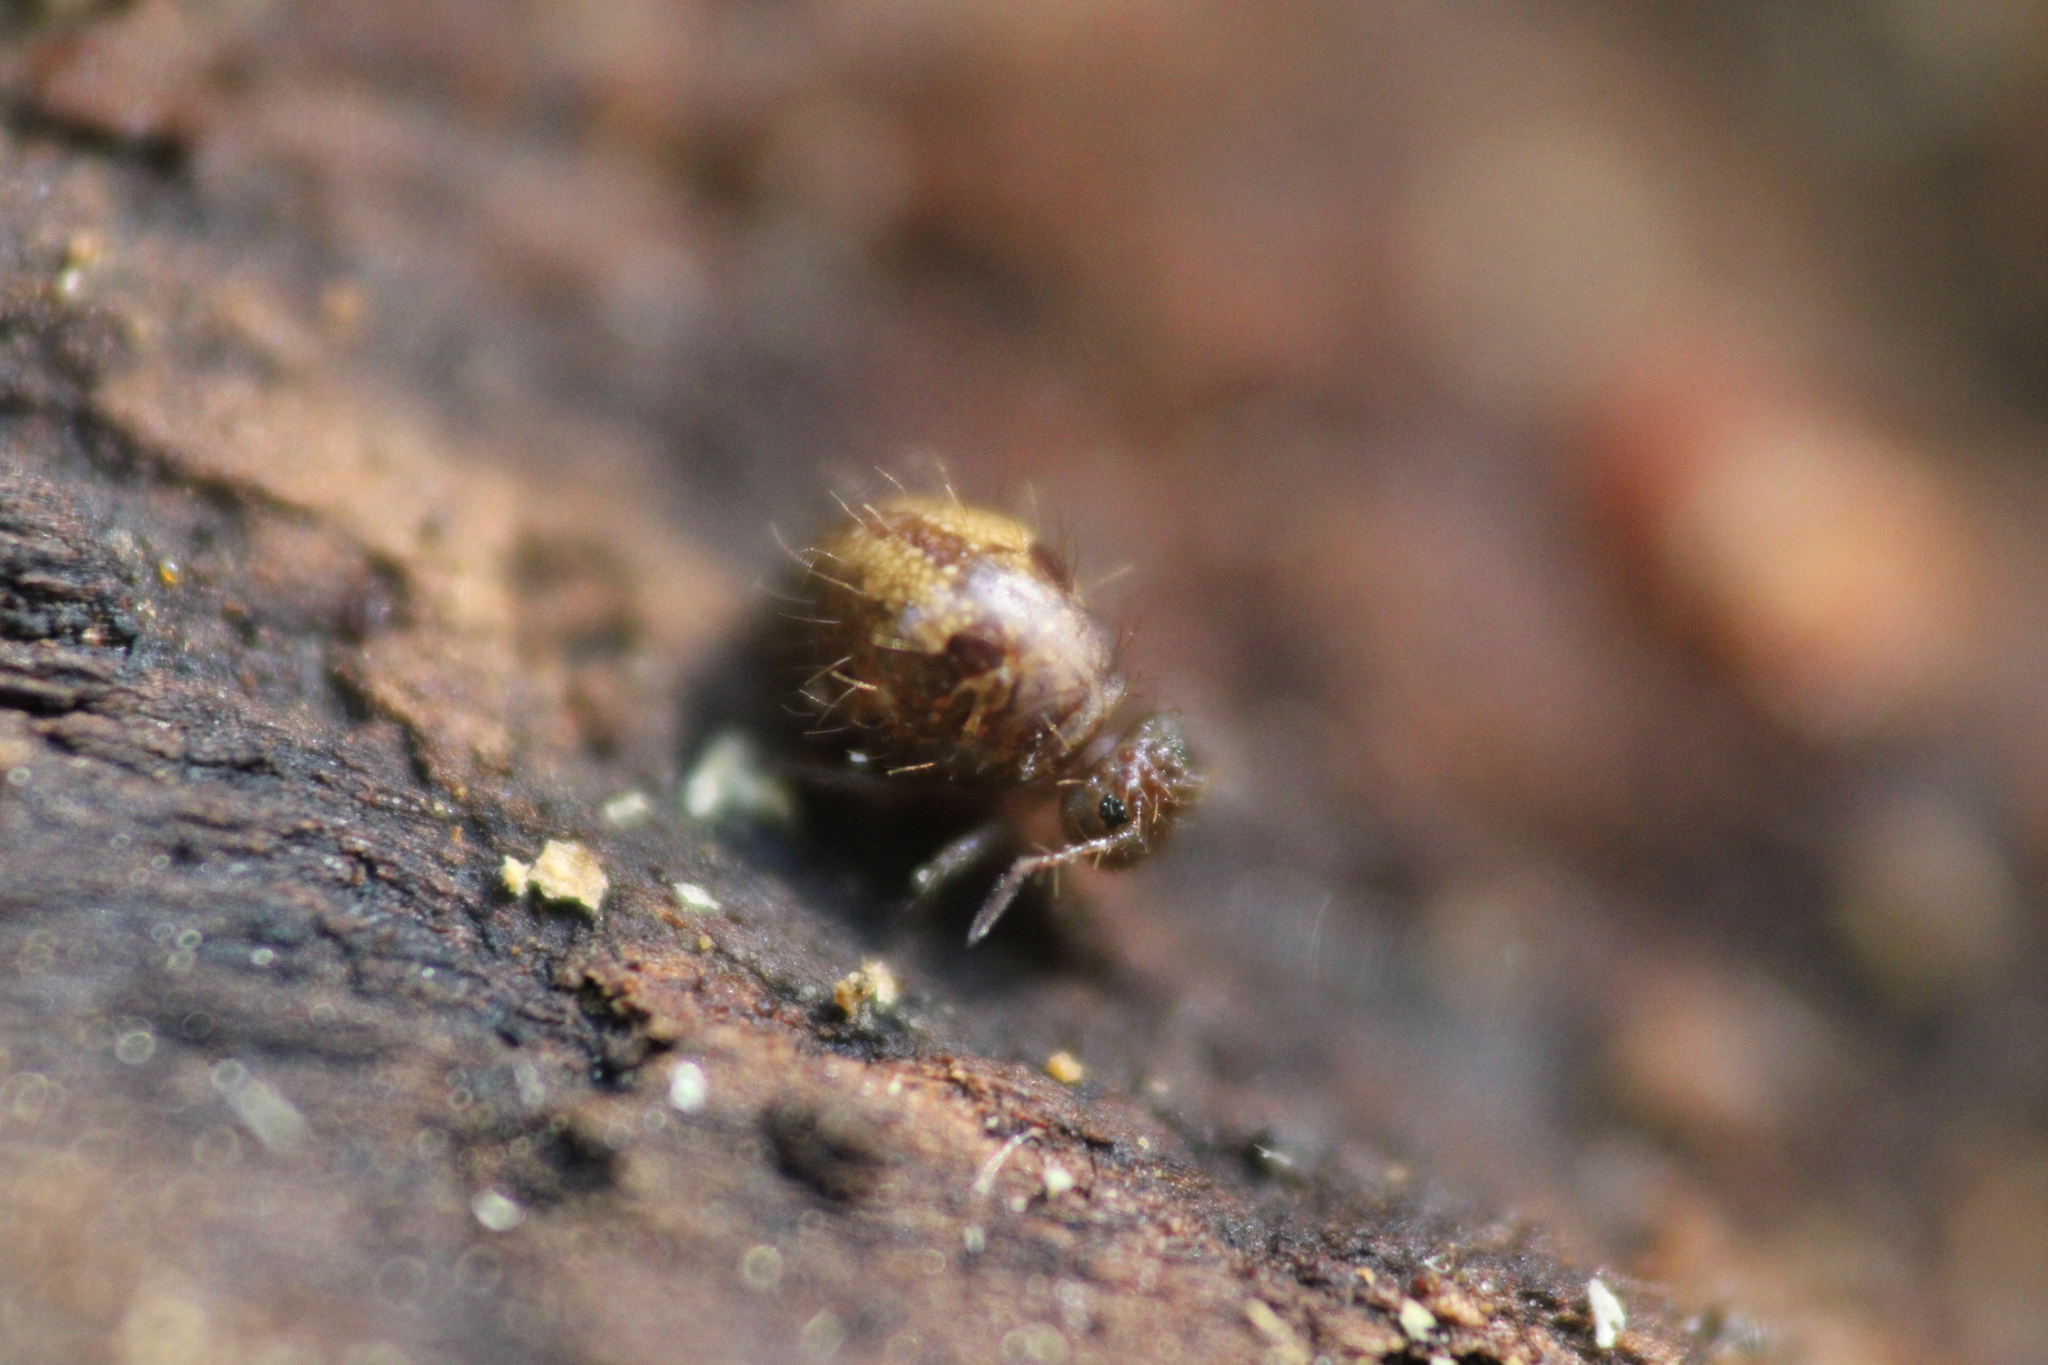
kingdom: Animalia
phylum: Arthropoda
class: Collembola
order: Symphypleona
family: Sminthuridae
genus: Allacma
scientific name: Allacma fusca
